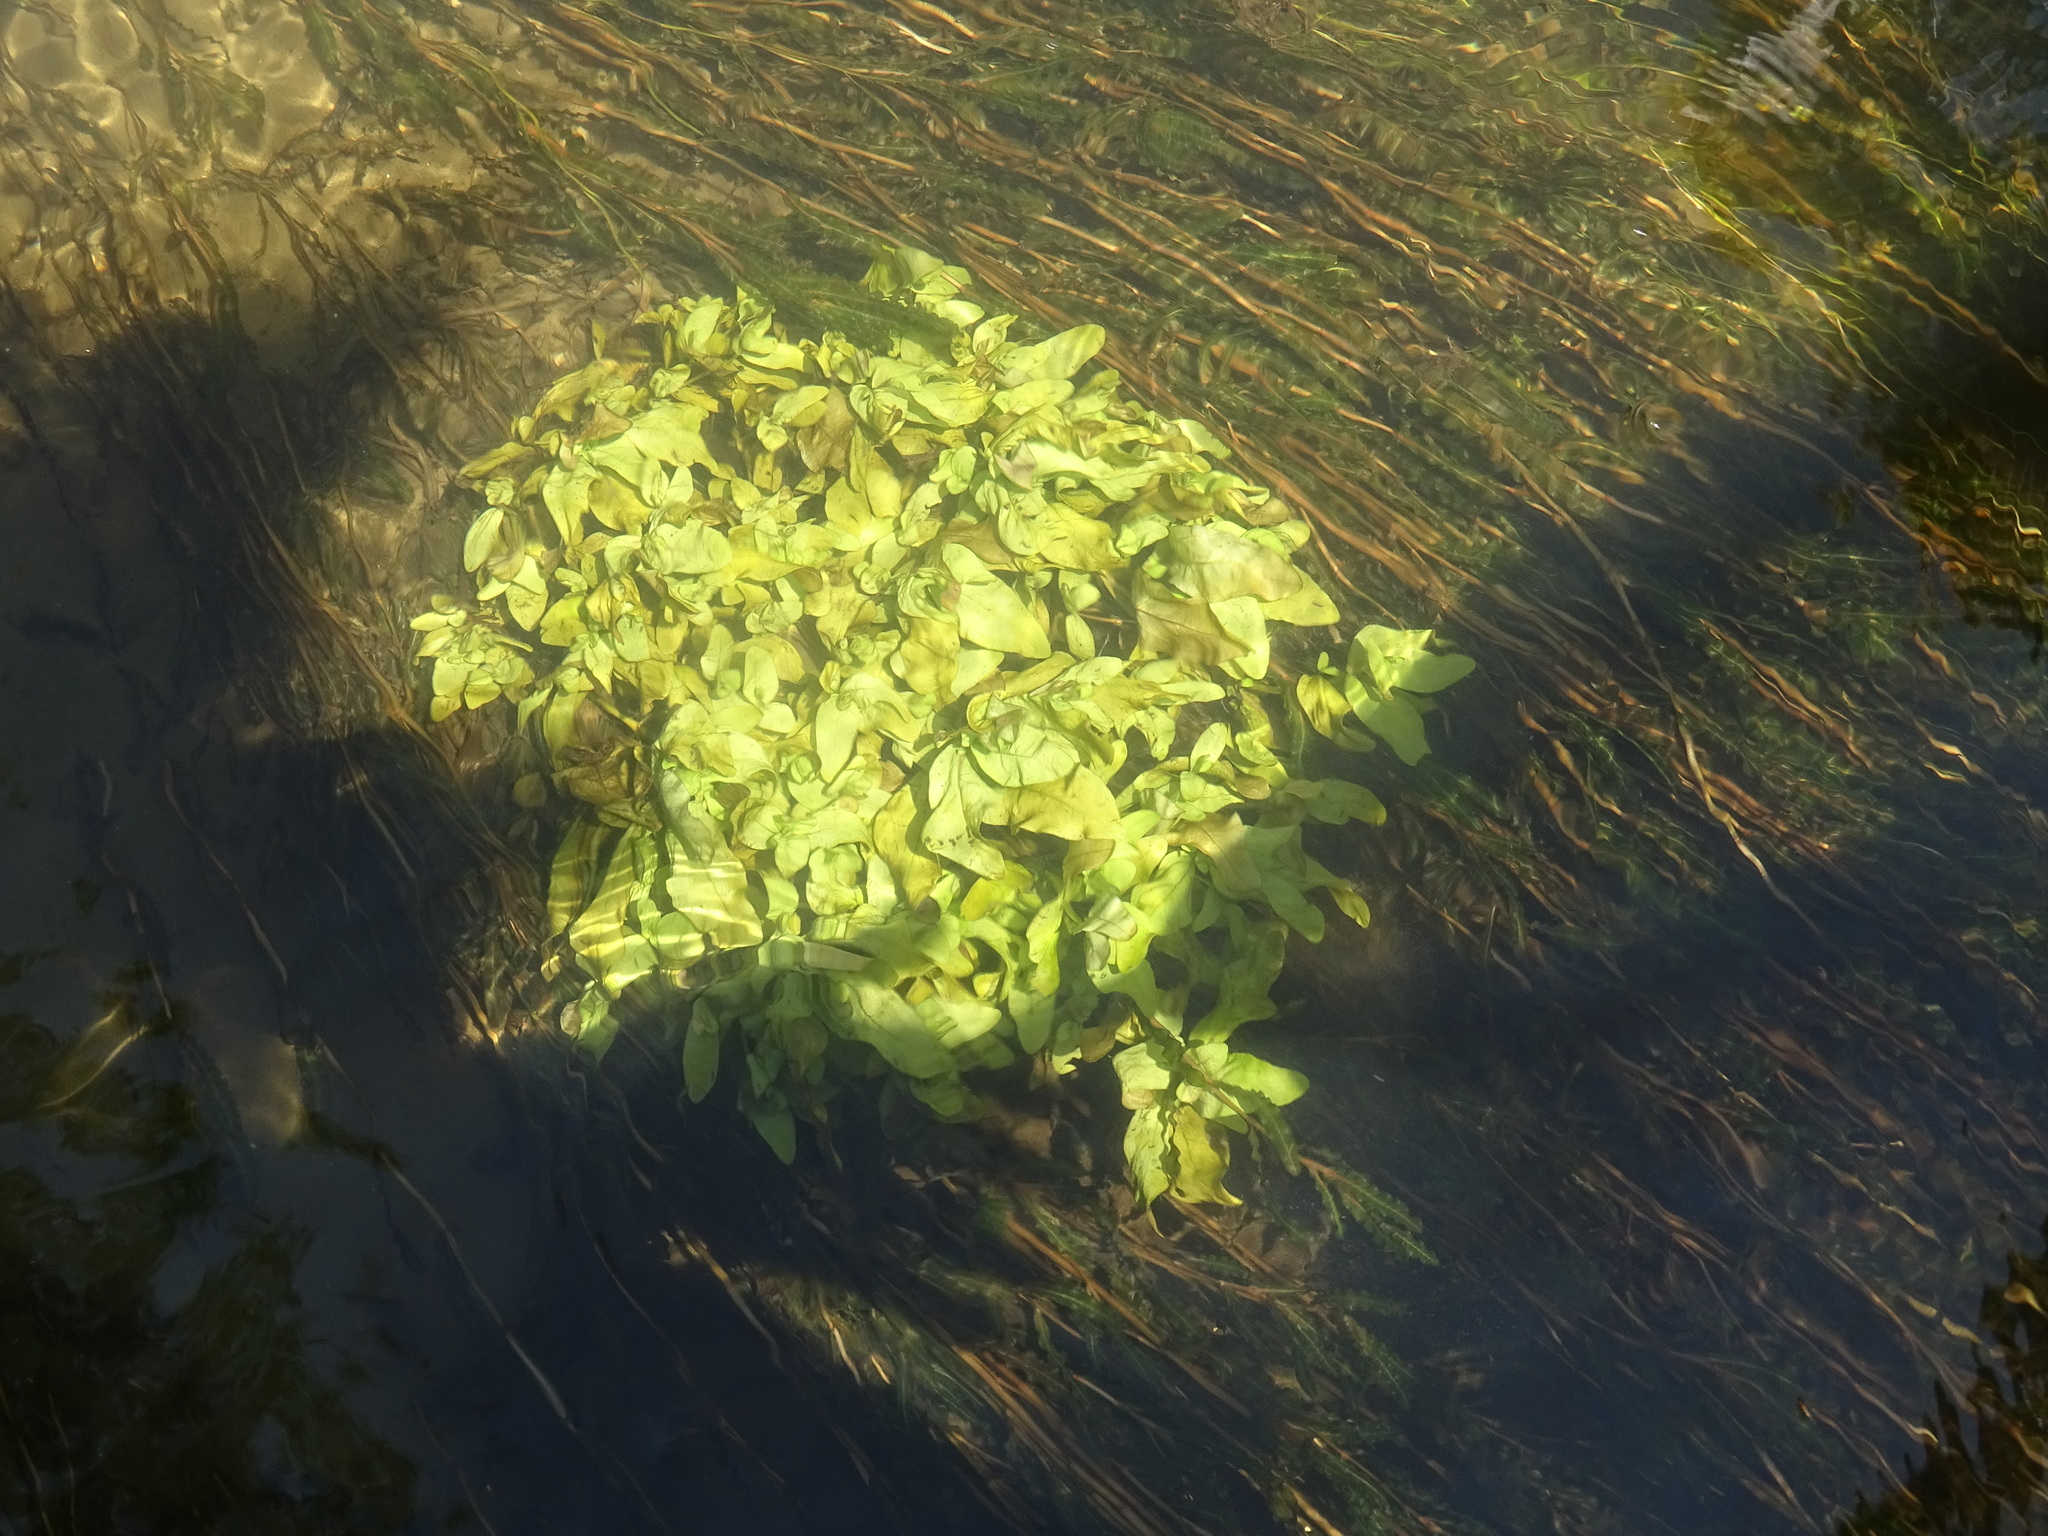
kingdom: Plantae
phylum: Tracheophyta
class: Magnoliopsida
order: Lamiales
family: Plantaginaceae
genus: Veronica
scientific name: Veronica anagallis-aquatica
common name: Water speedwell
